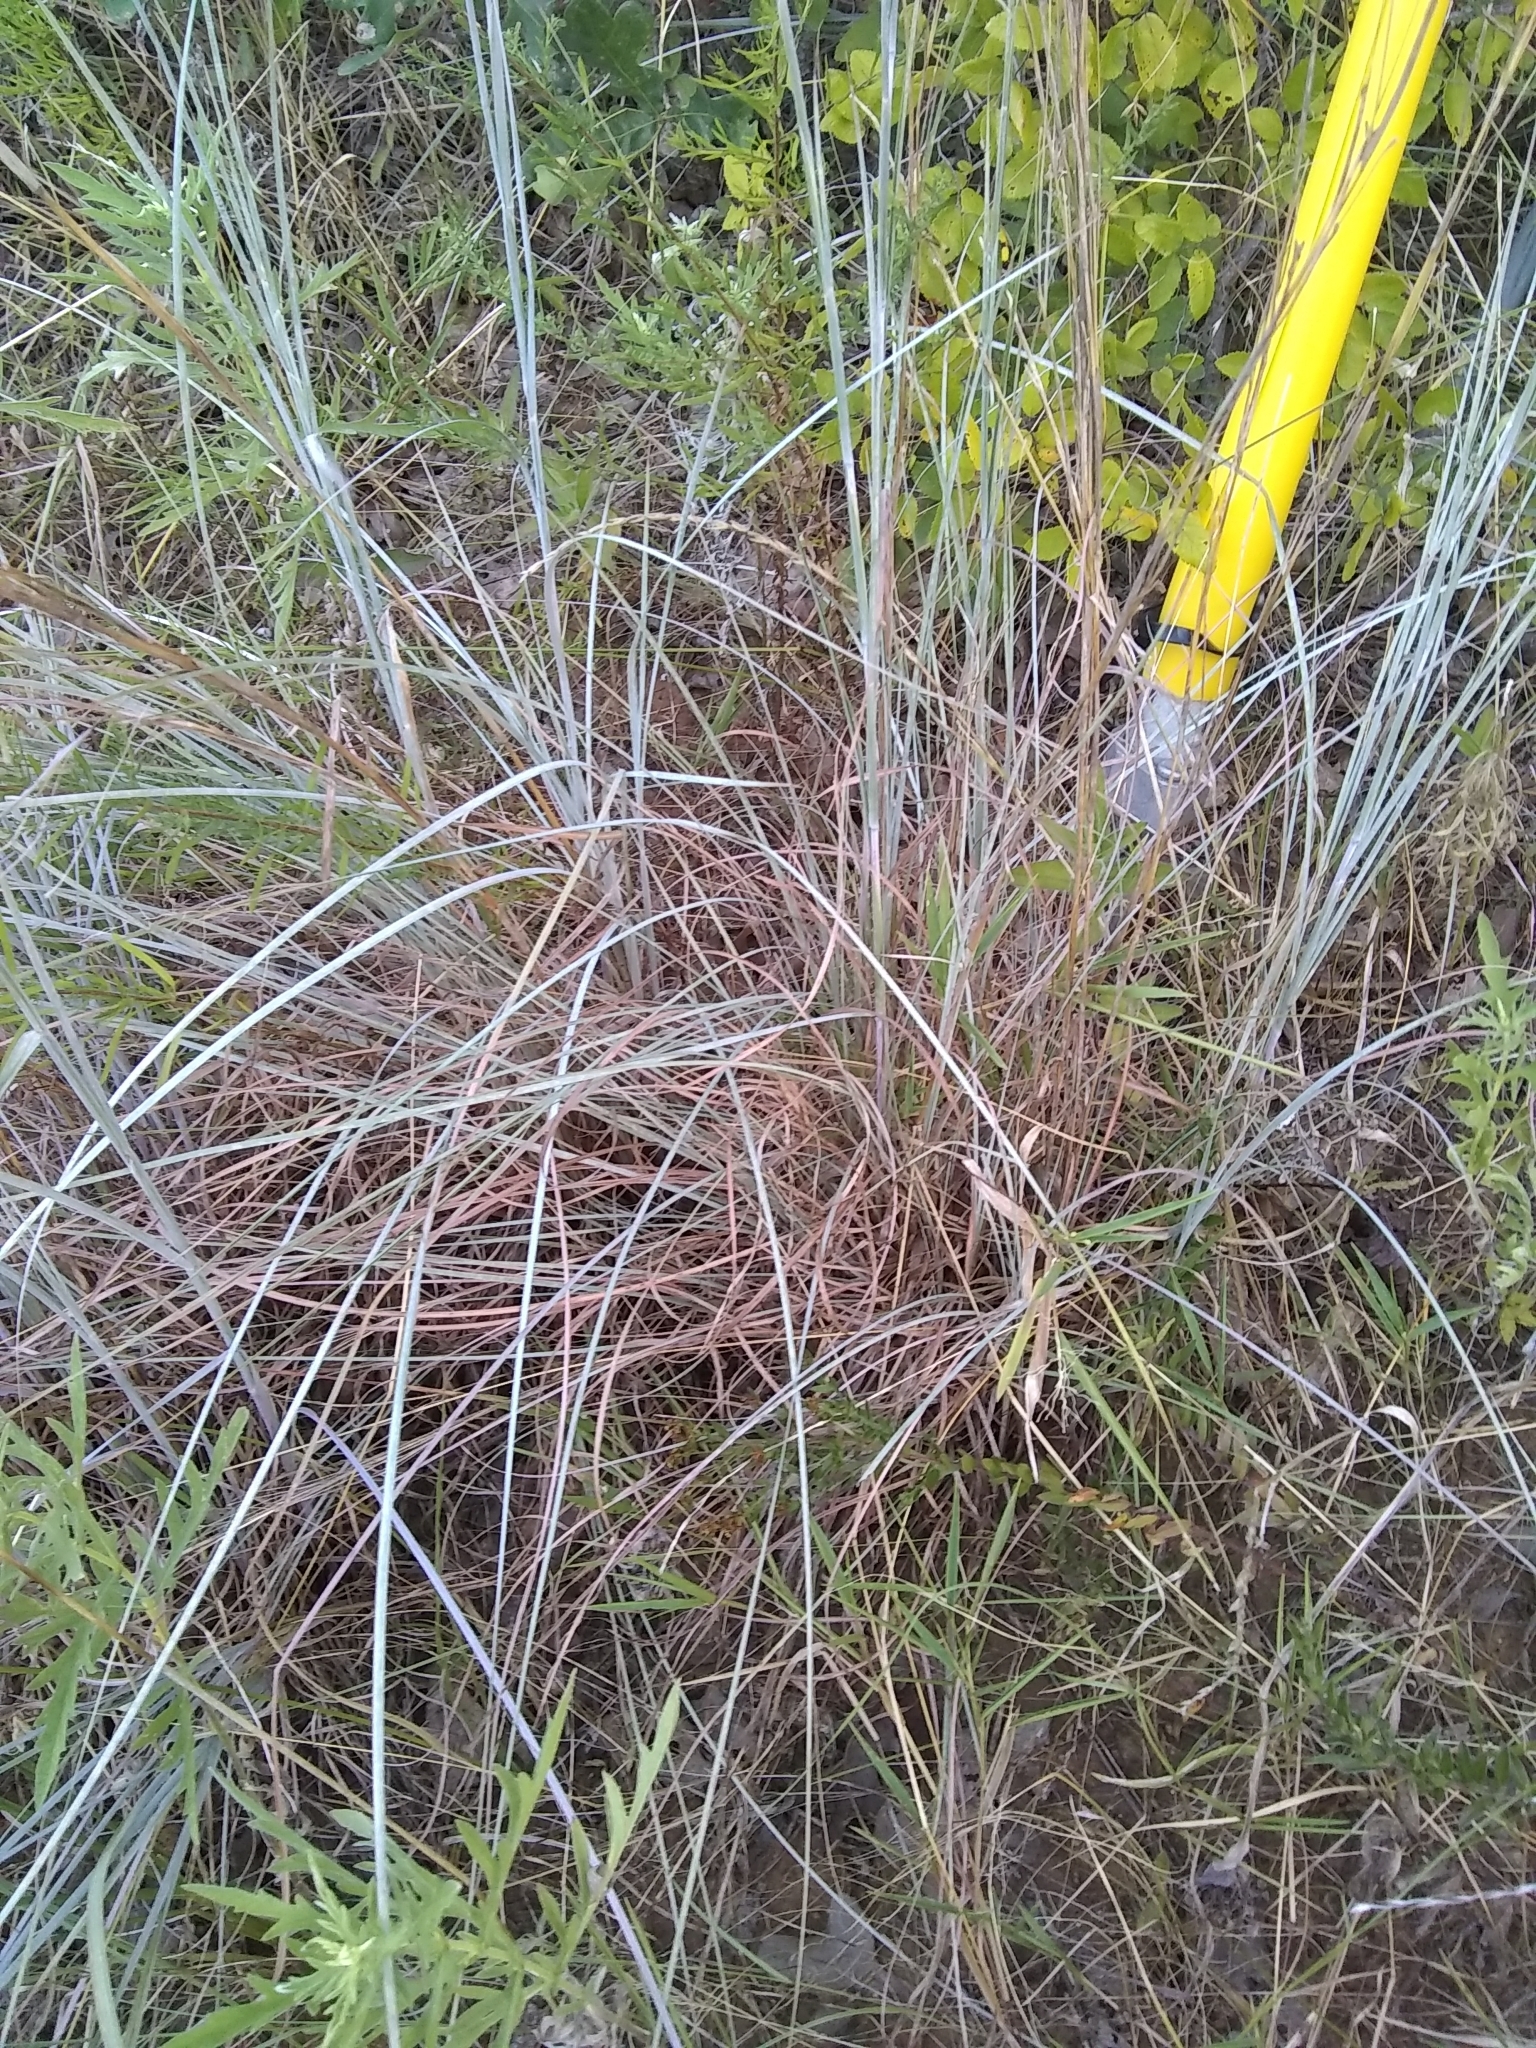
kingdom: Plantae
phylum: Tracheophyta
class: Liliopsida
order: Poales
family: Poaceae
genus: Schizachyrium
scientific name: Schizachyrium scoparium
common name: Little bluestem
